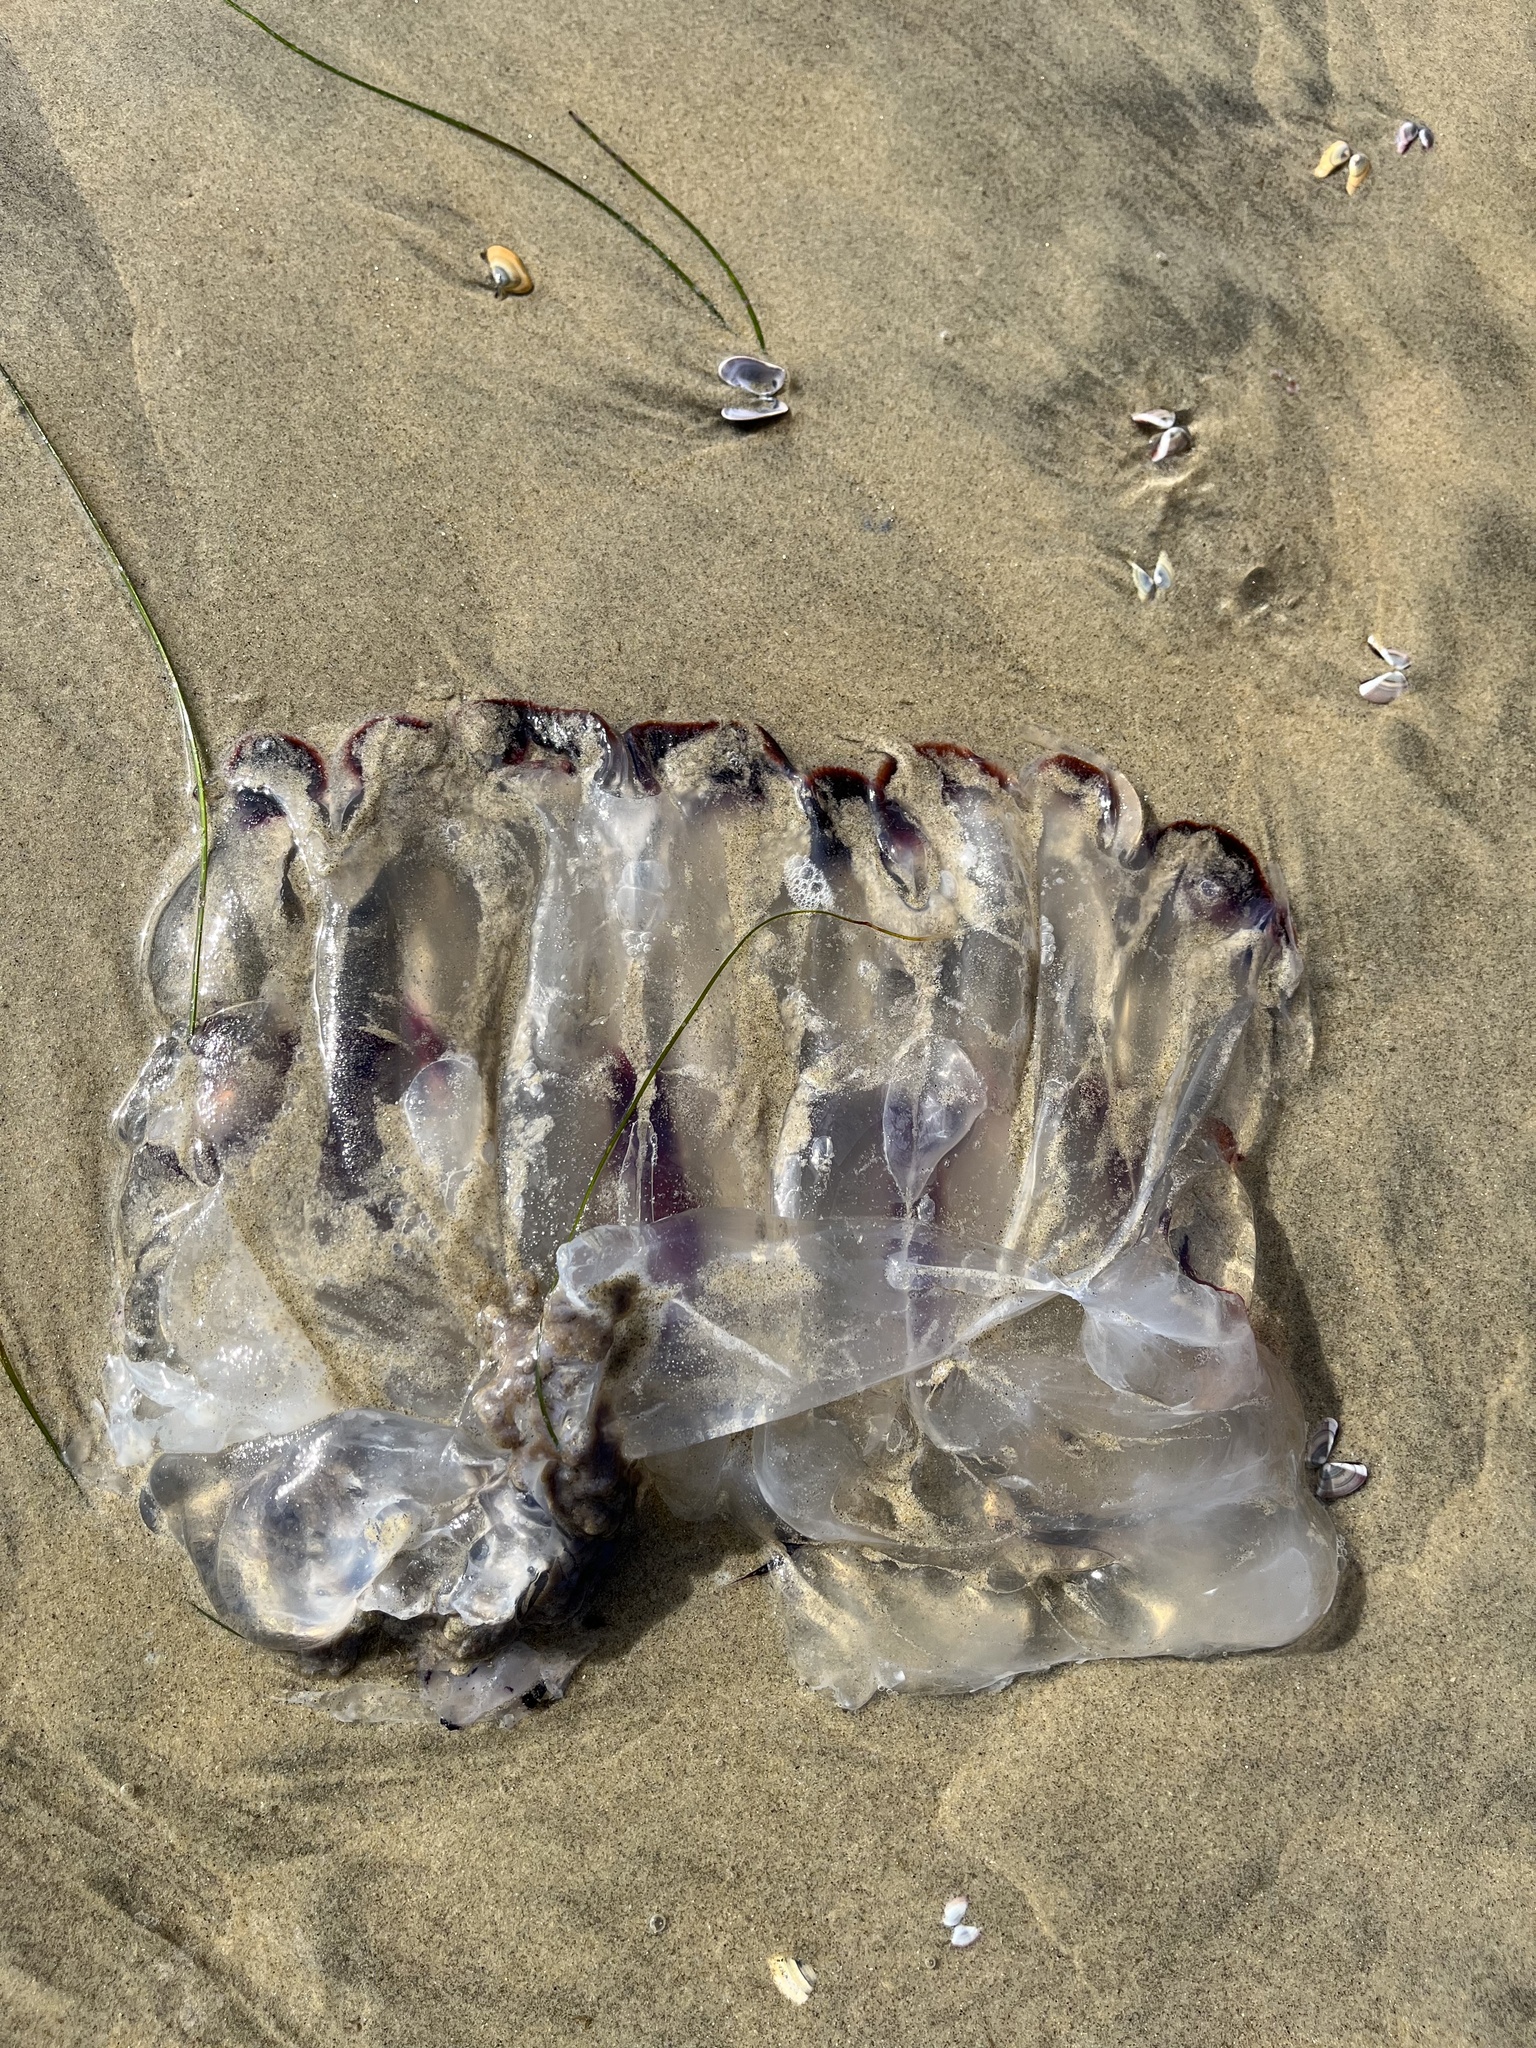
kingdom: Animalia
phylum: Cnidaria
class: Scyphozoa
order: Semaeostomeae
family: Pelagiidae
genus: Chrysaora
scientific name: Chrysaora colorata
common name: Purple-striped jellyfish
